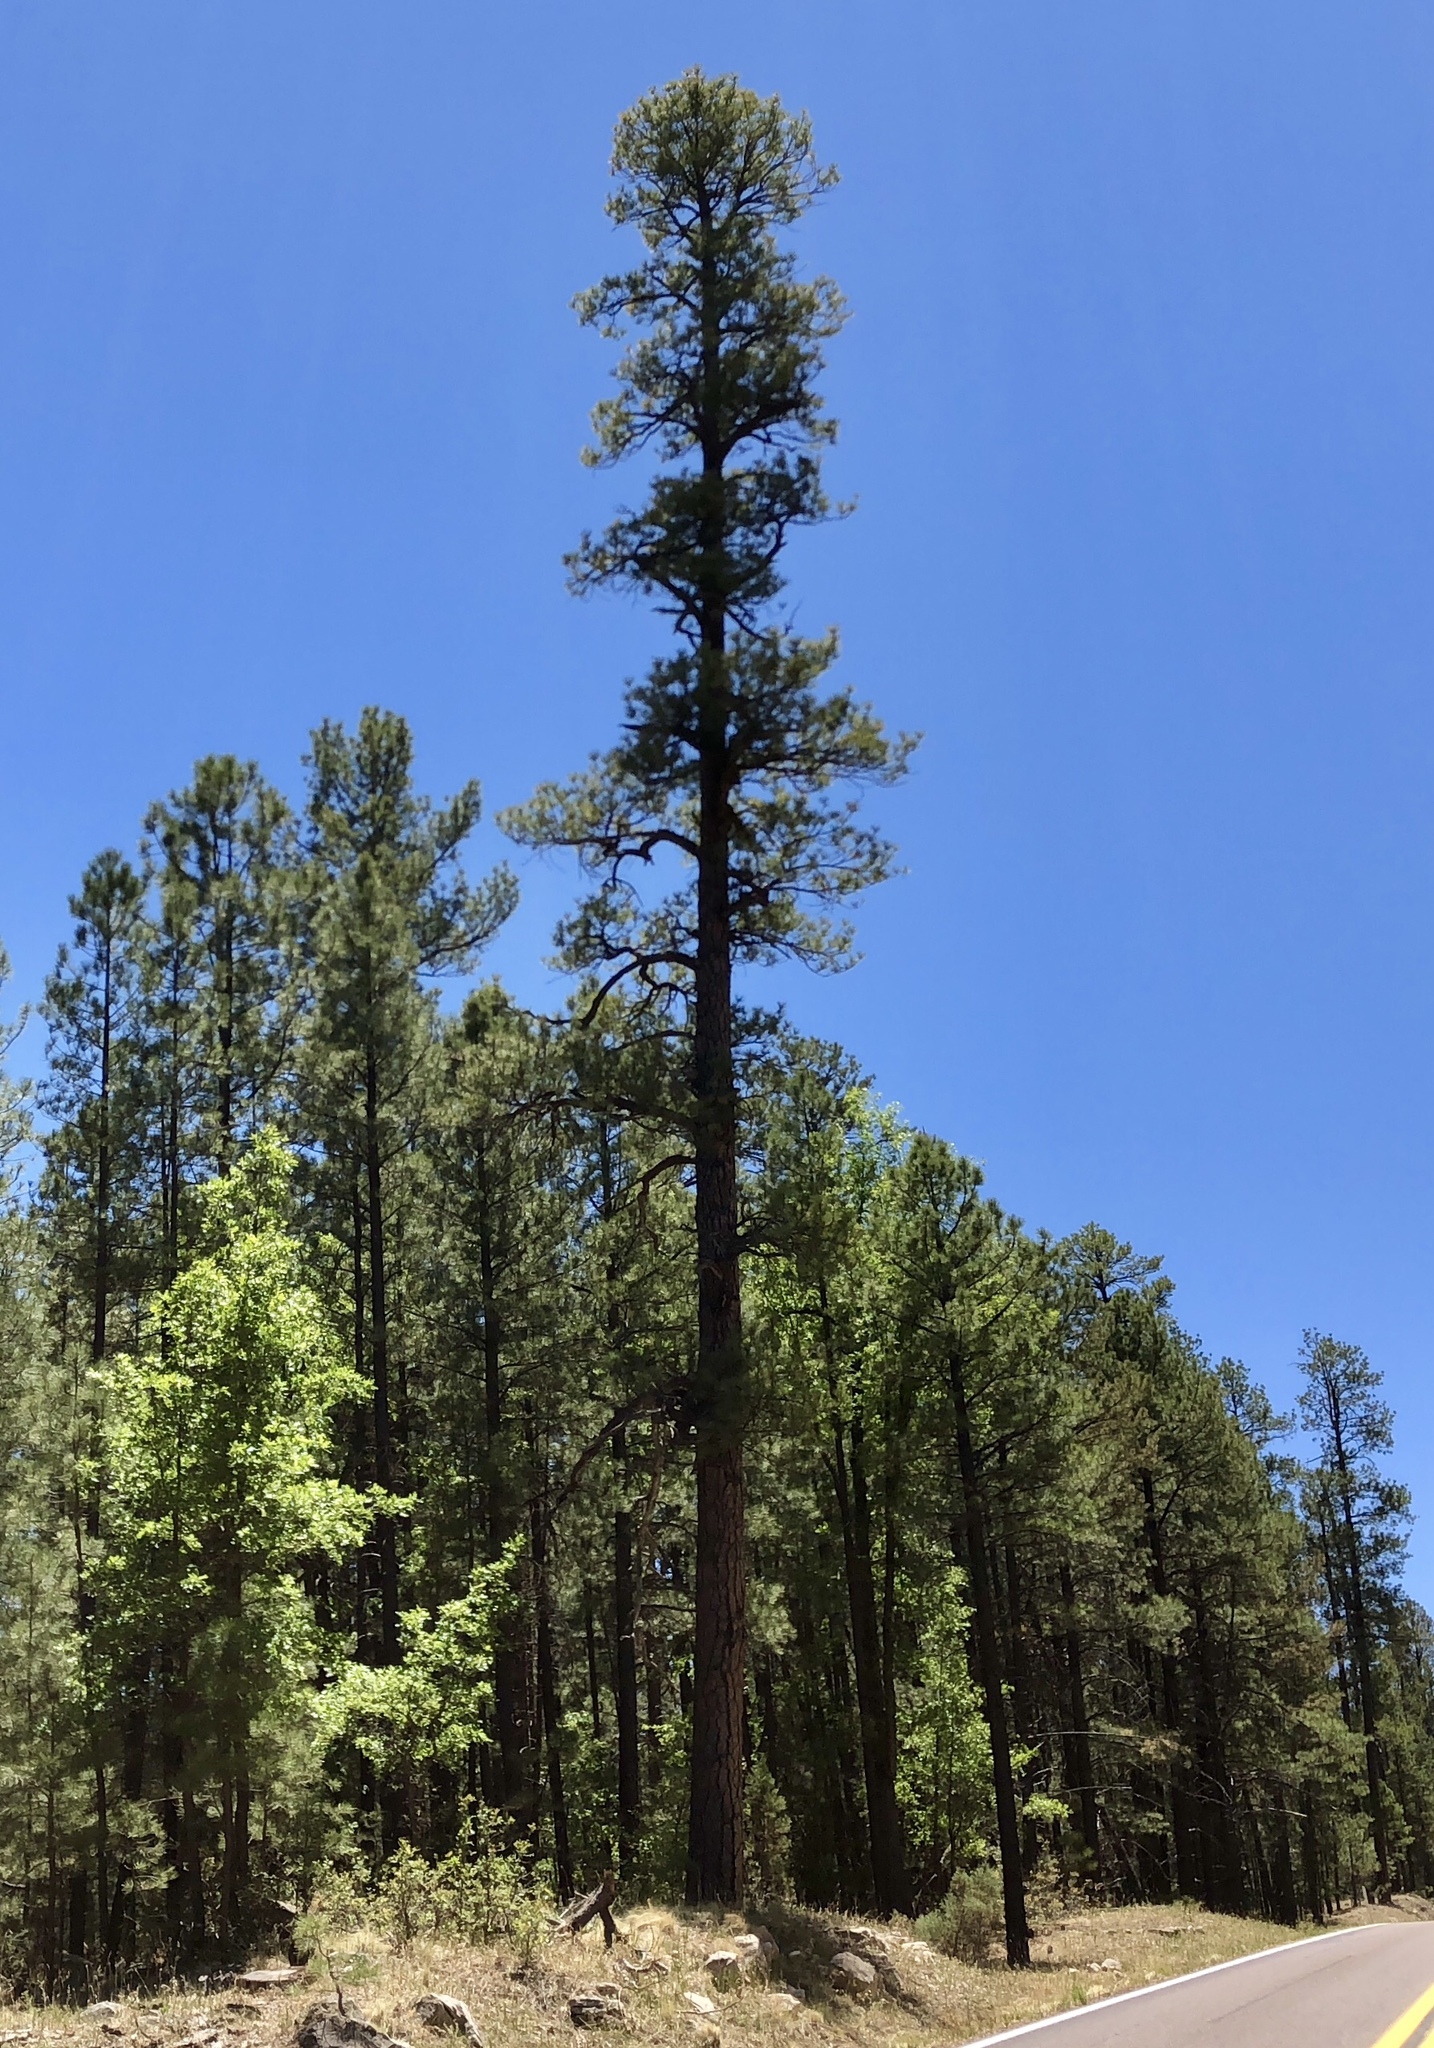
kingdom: Plantae
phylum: Tracheophyta
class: Pinopsida
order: Pinales
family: Pinaceae
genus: Pinus
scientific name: Pinus ponderosa
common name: Western yellow-pine
